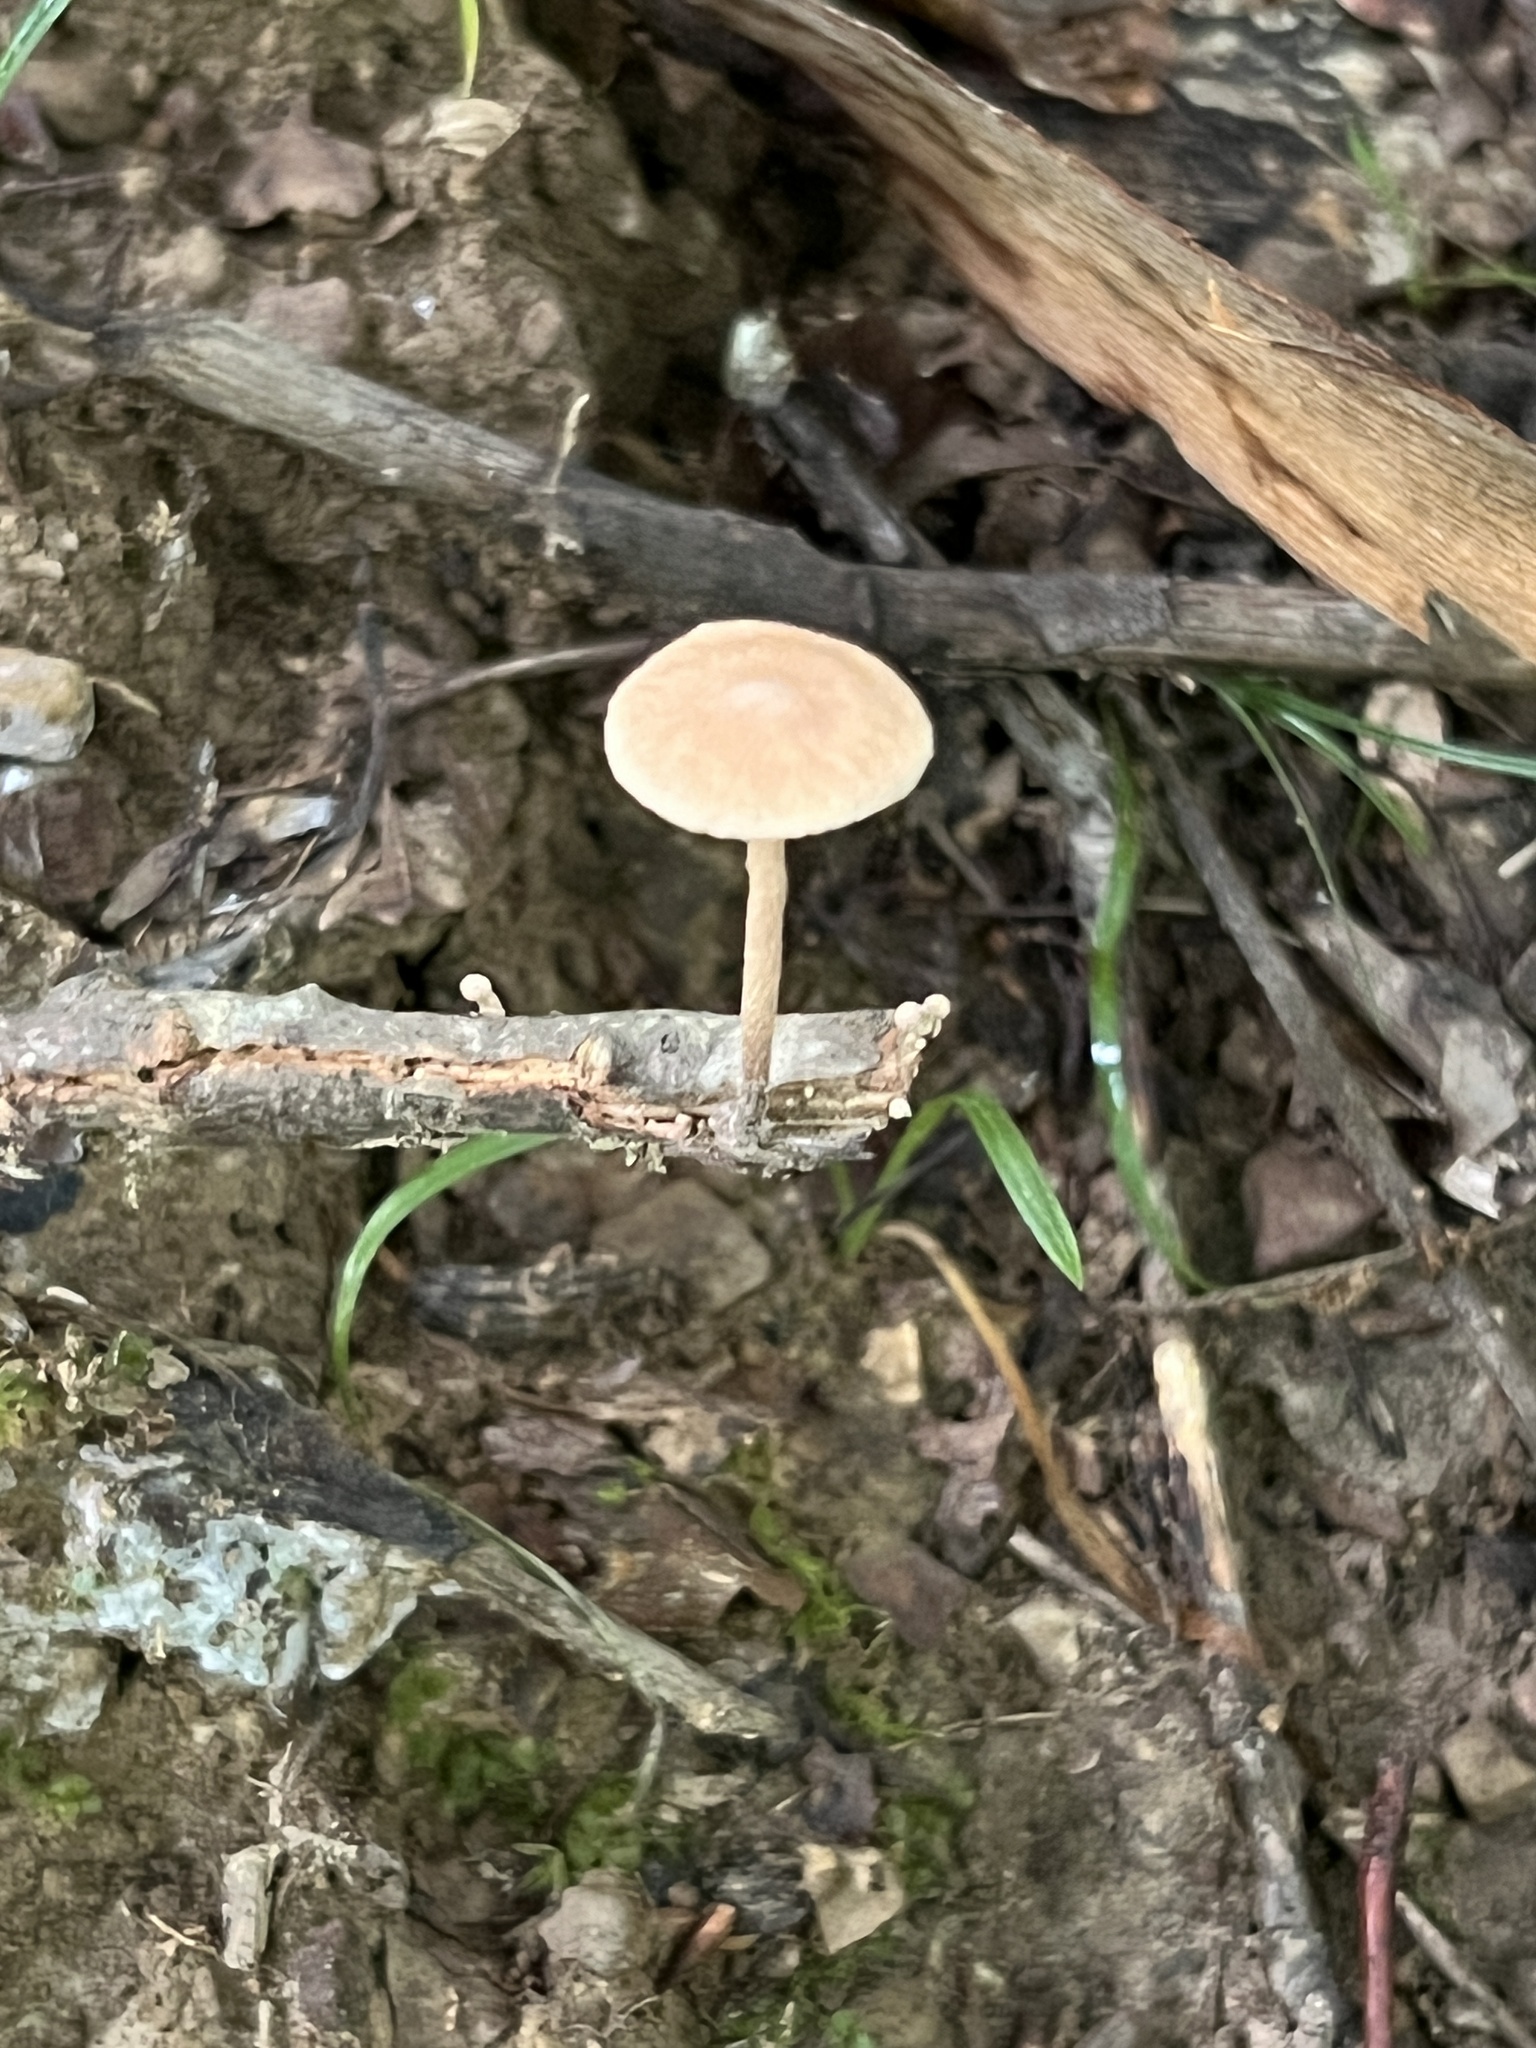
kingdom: Fungi
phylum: Basidiomycota
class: Agaricomycetes
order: Agaricales
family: Omphalotaceae
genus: Collybiopsis
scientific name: Collybiopsis subnuda
